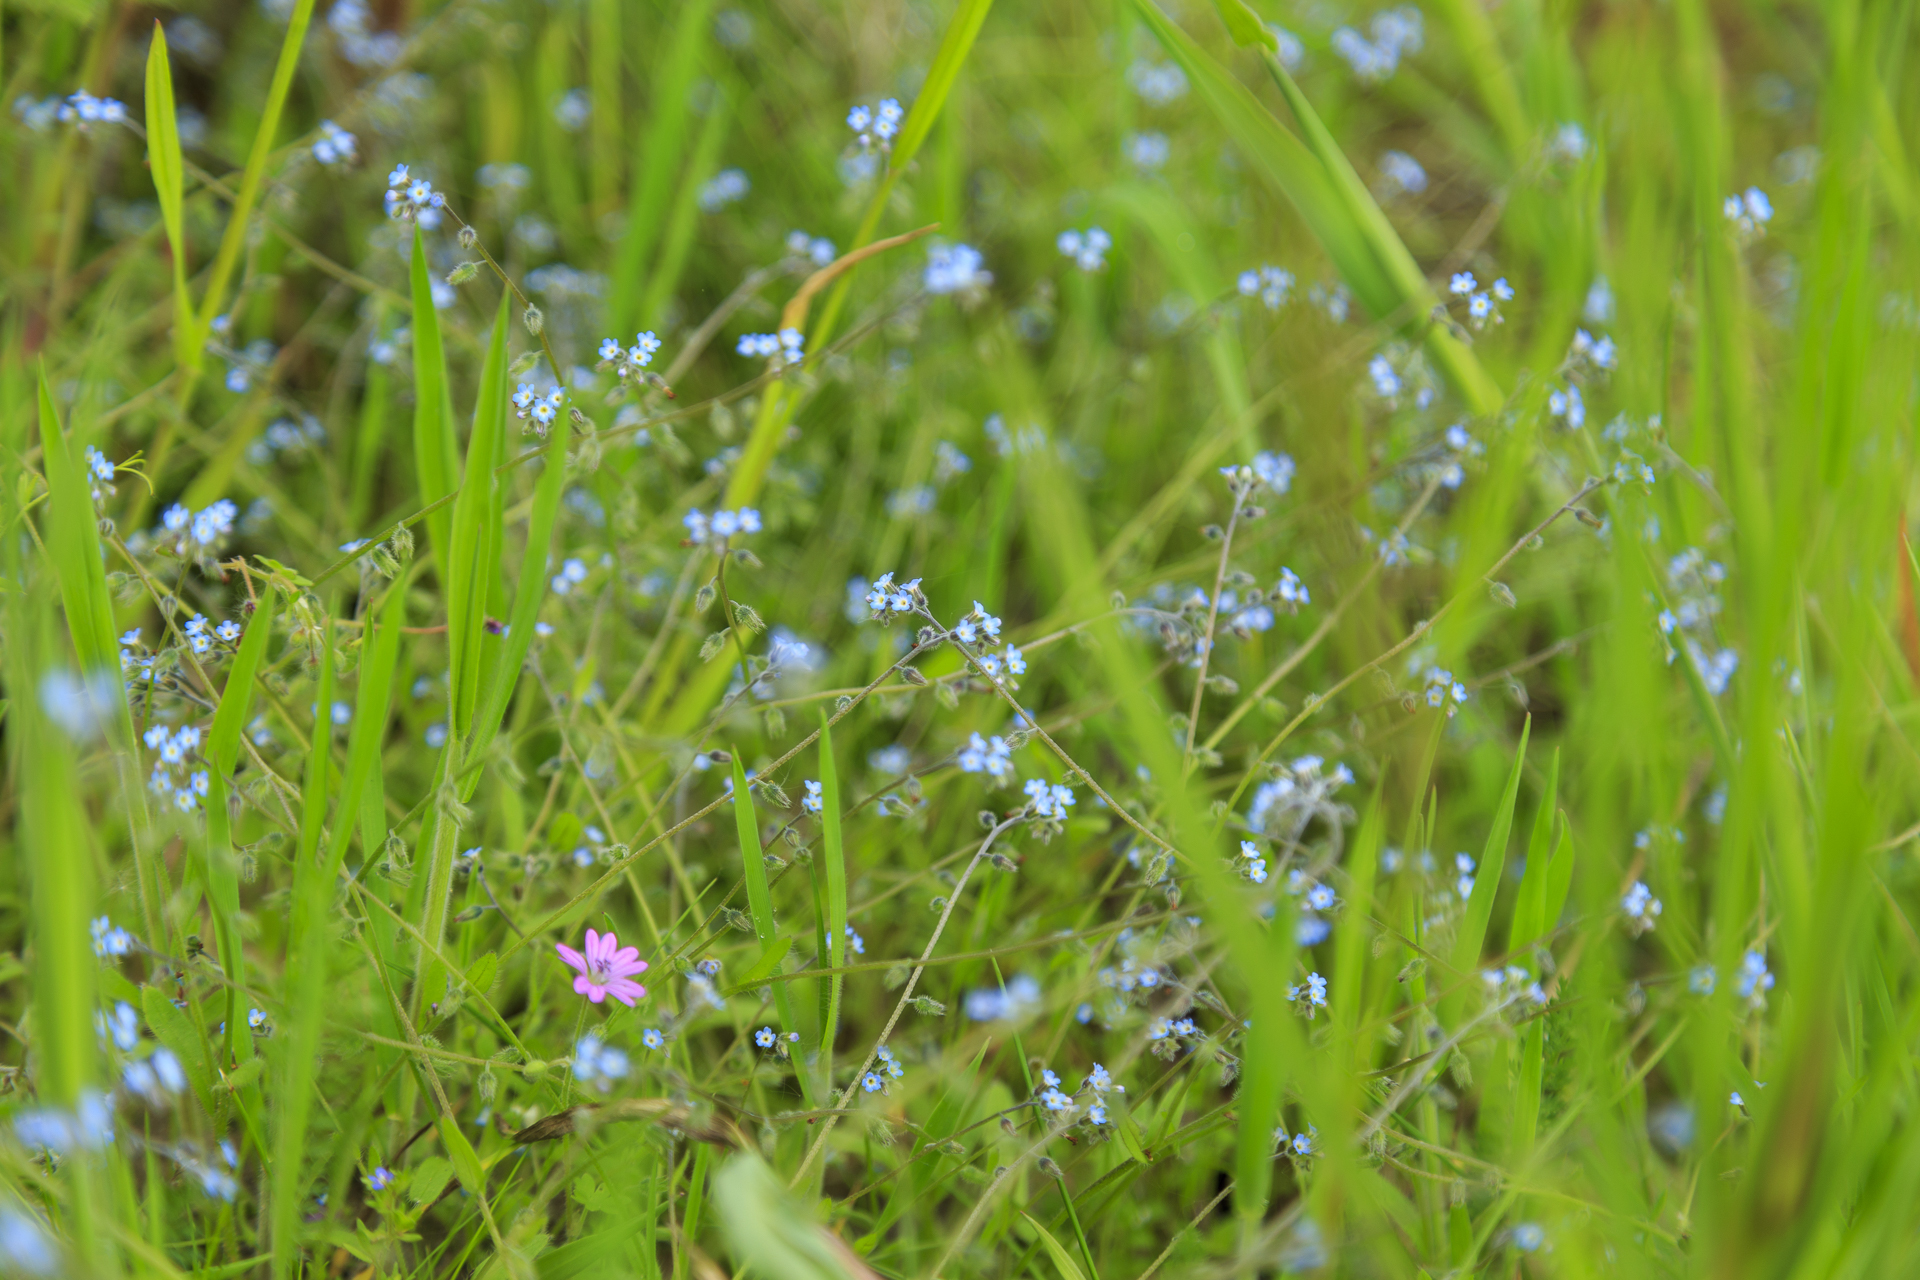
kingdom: Plantae
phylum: Tracheophyta
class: Magnoliopsida
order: Boraginales
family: Boraginaceae
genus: Myosotis
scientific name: Myosotis ramosissima
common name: Early forget-me-not
